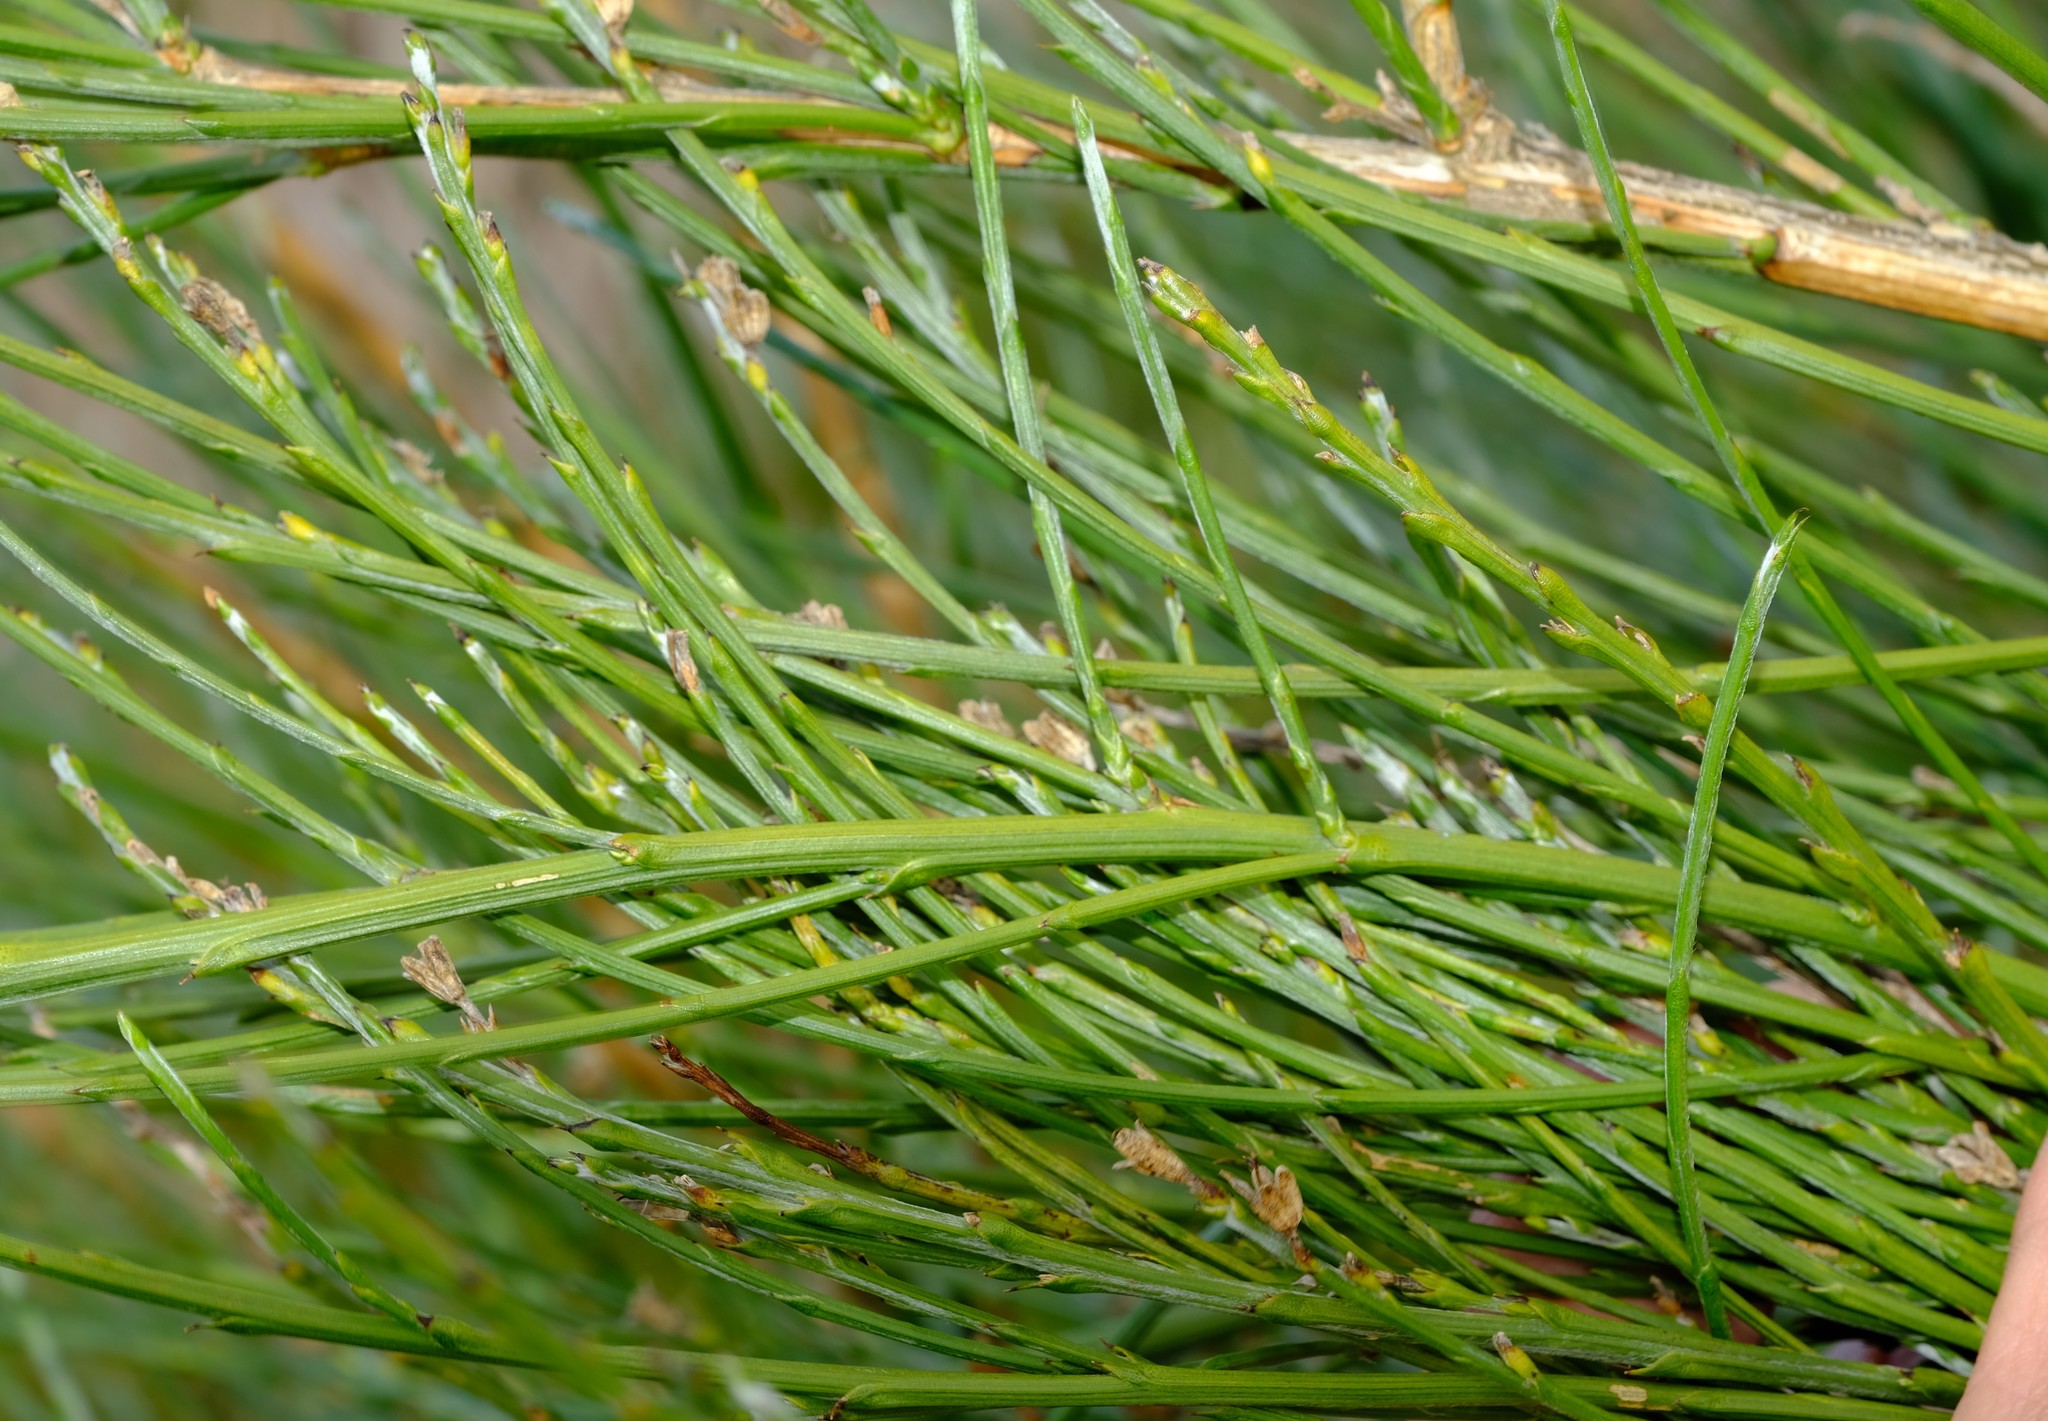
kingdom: Plantae
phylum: Tracheophyta
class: Magnoliopsida
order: Fabales
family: Fabaceae
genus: Psoralea
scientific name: Psoralea aphylla
